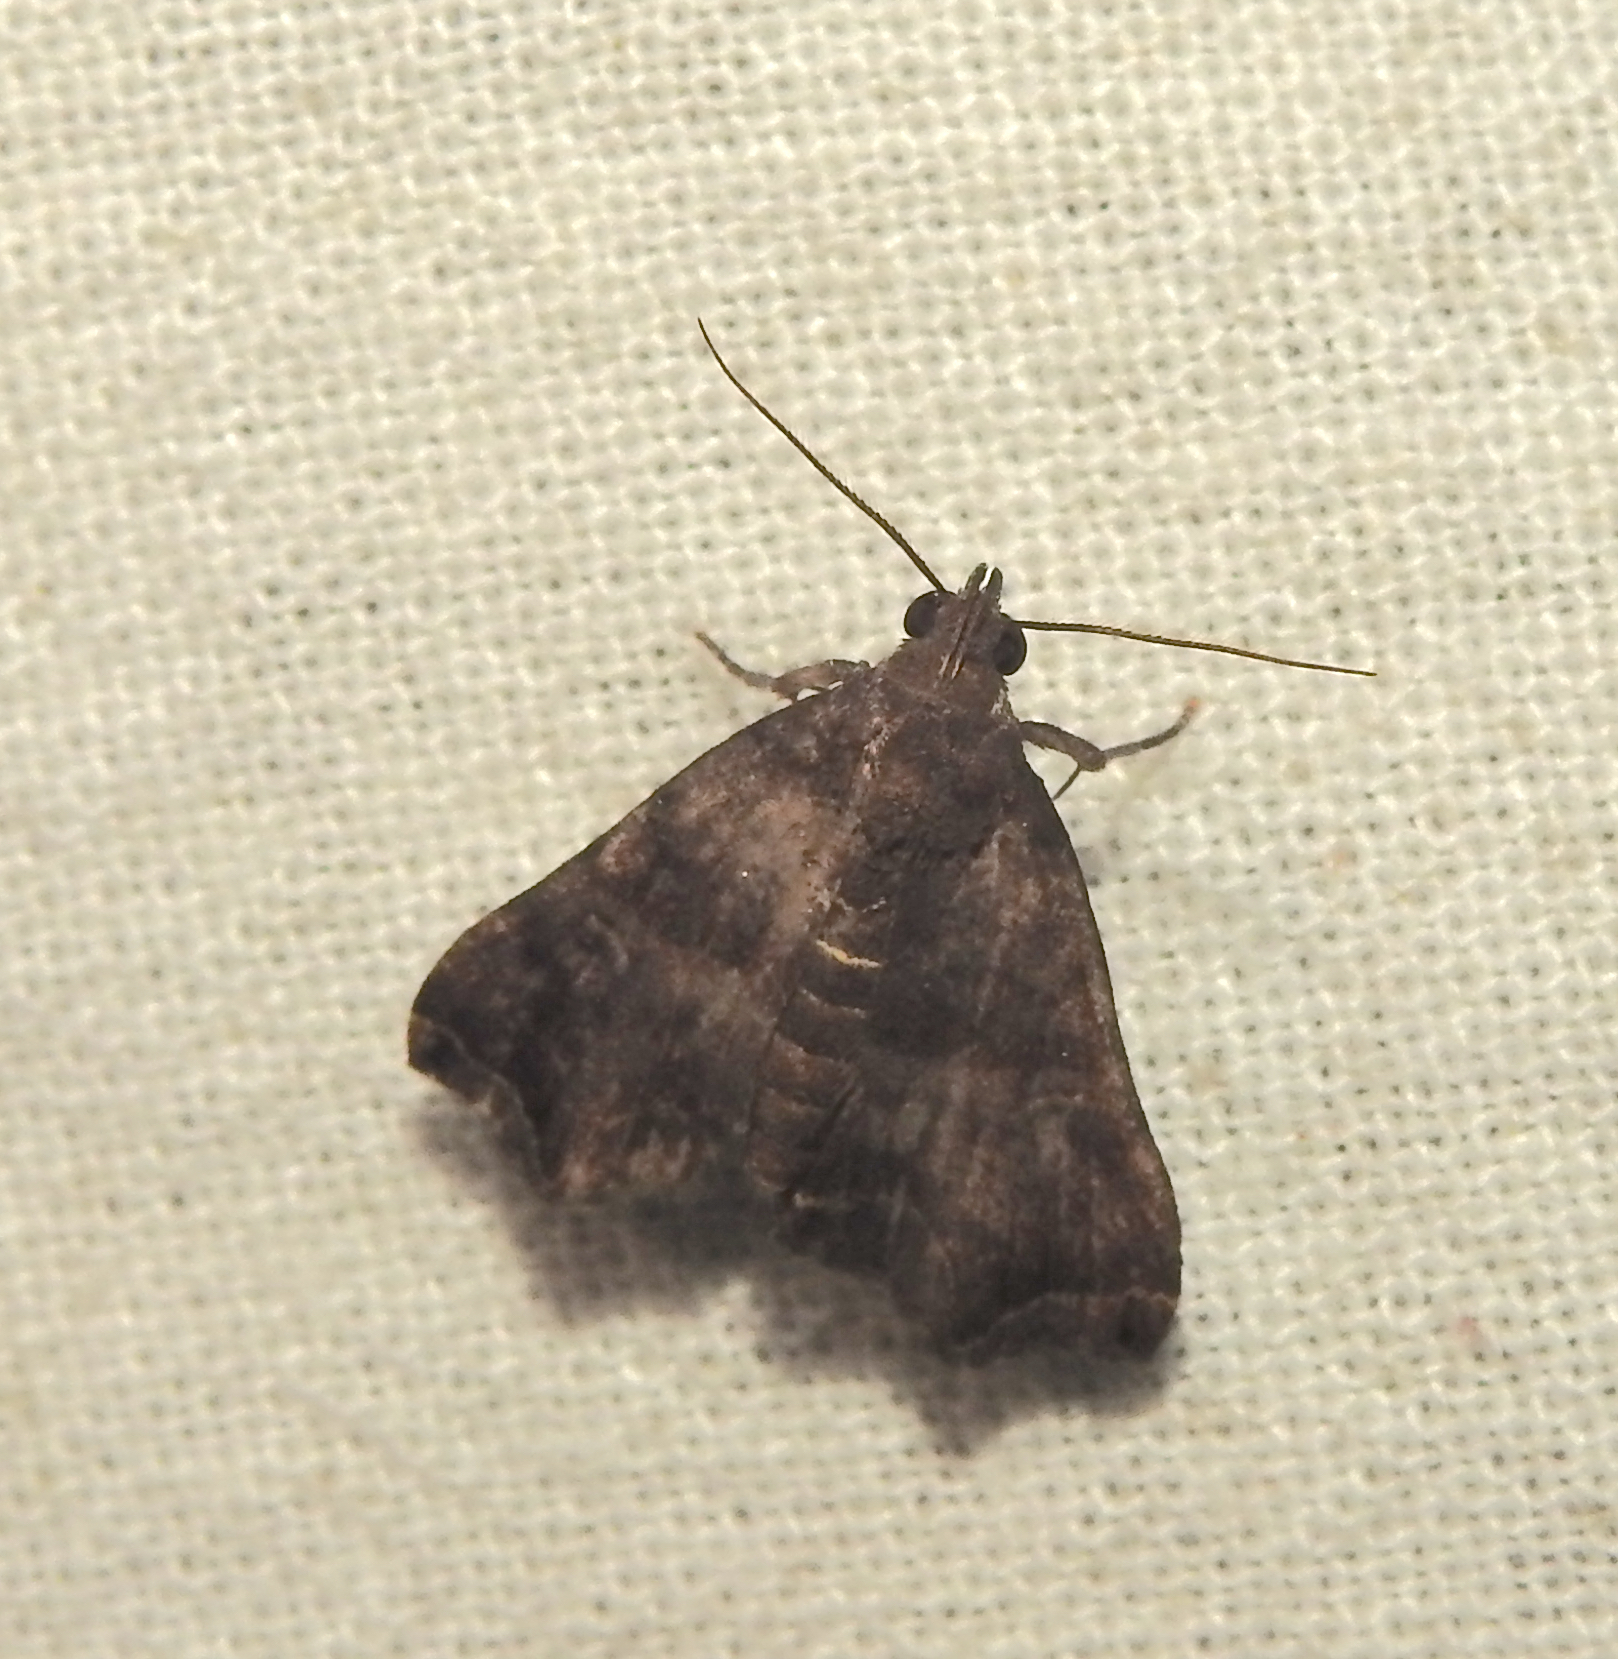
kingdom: Animalia
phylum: Arthropoda
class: Insecta
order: Lepidoptera
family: Erebidae
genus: Polypogon
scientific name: Polypogon biasalis
